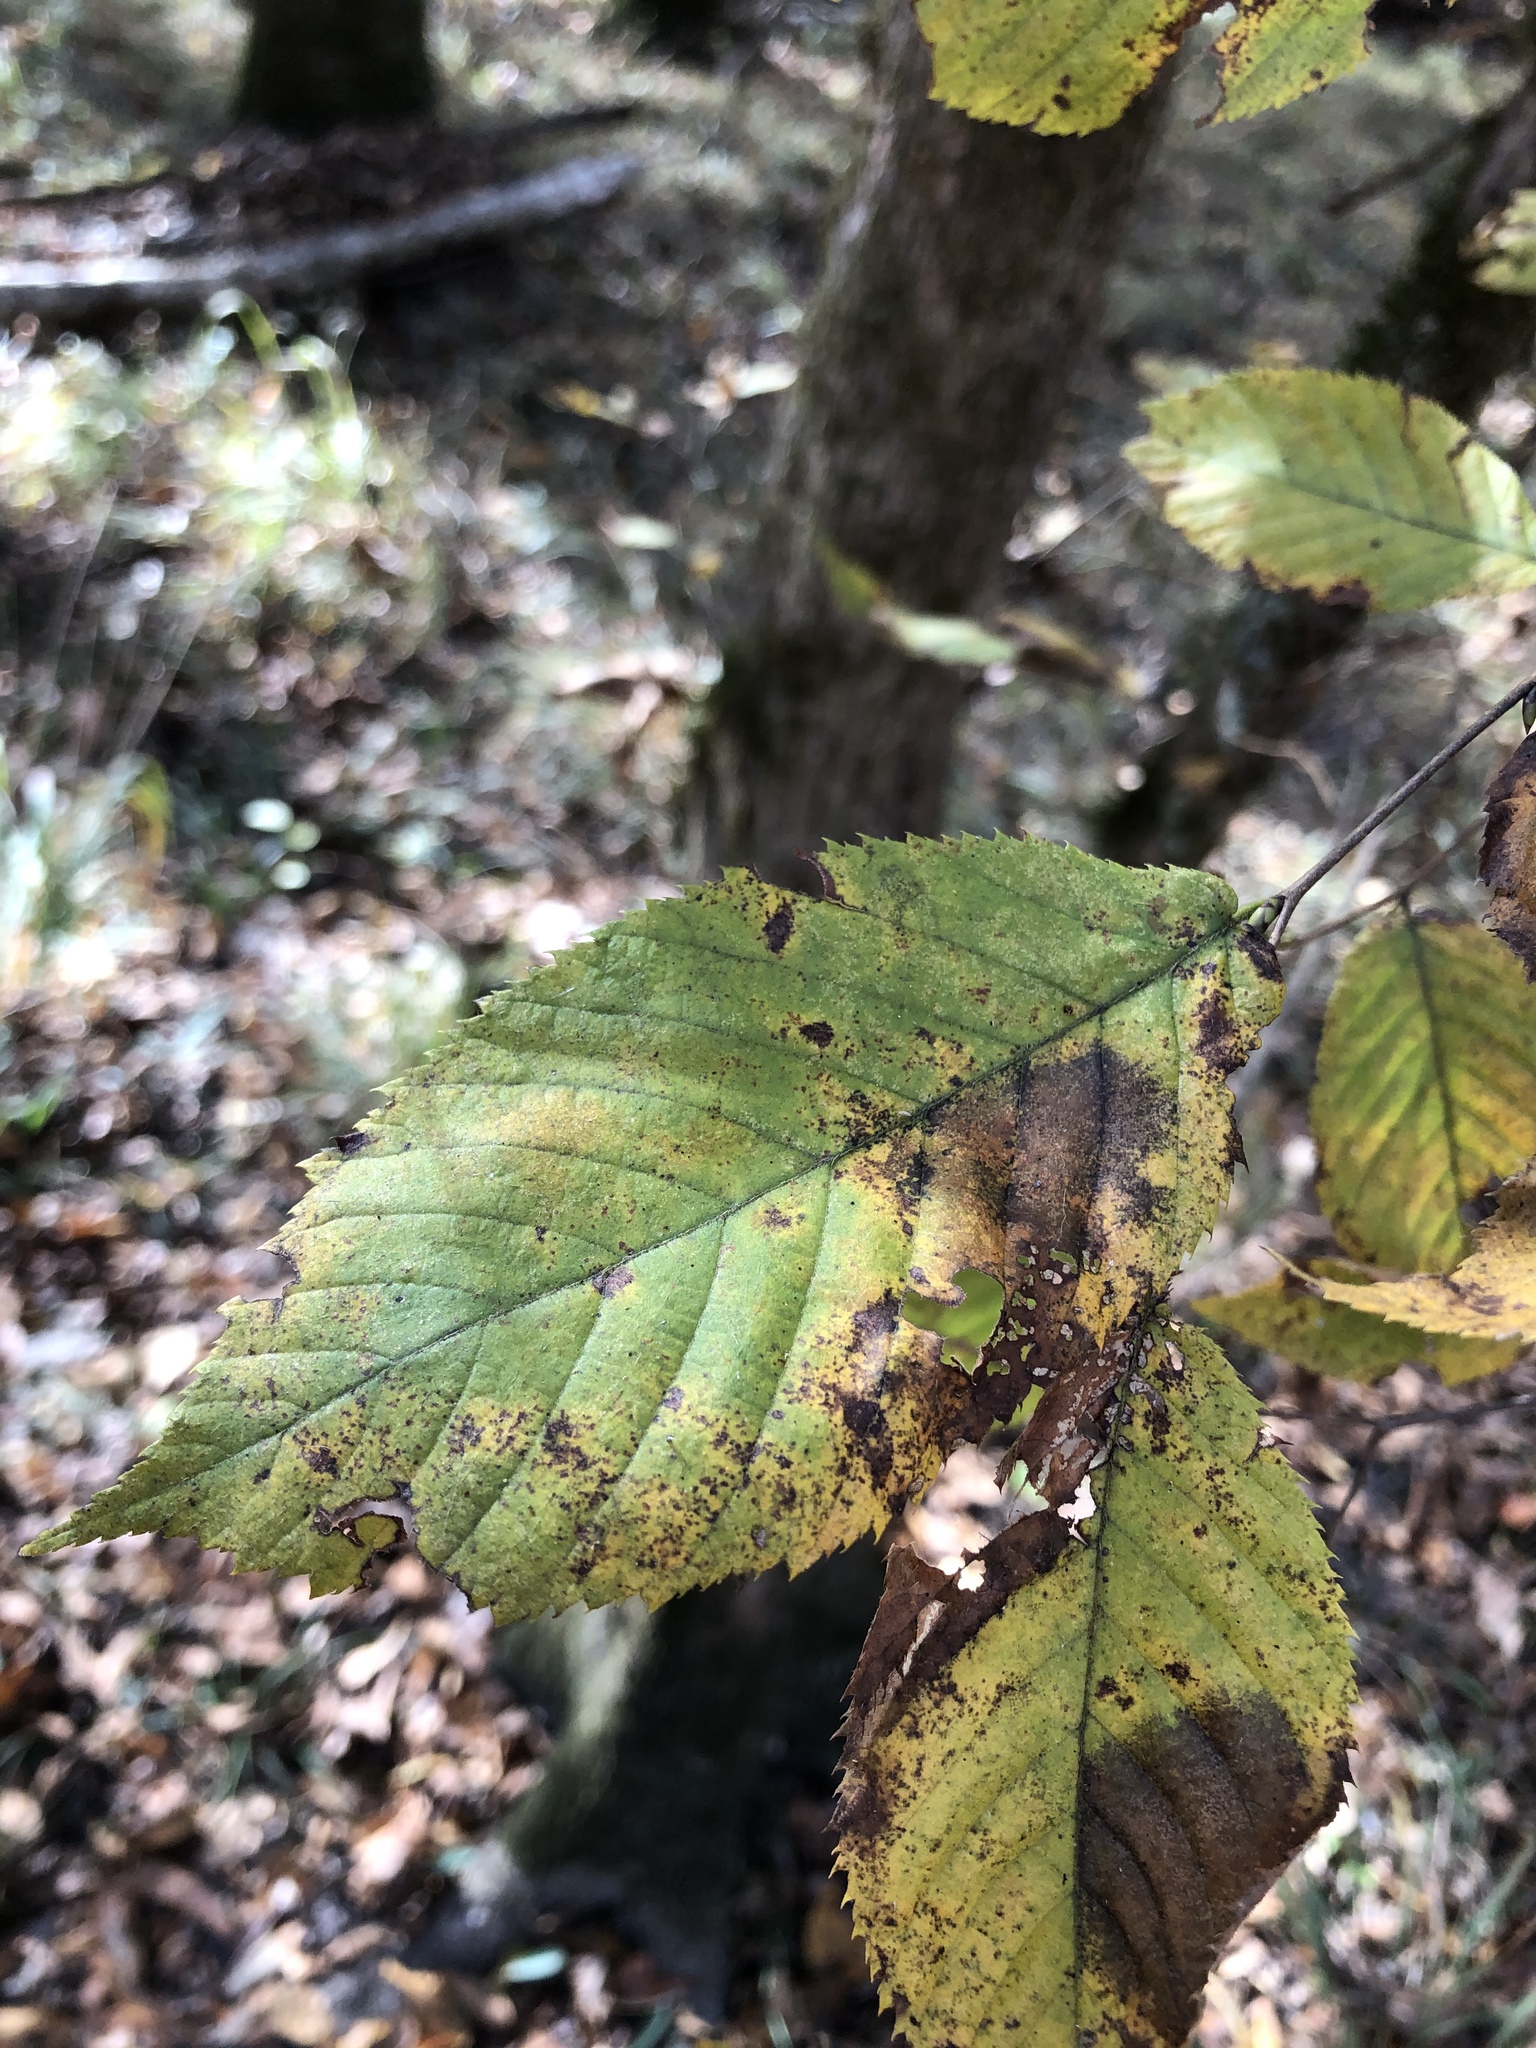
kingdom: Plantae
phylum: Tracheophyta
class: Magnoliopsida
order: Fagales
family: Betulaceae
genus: Ostrya
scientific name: Ostrya virginiana
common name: Ironwood
